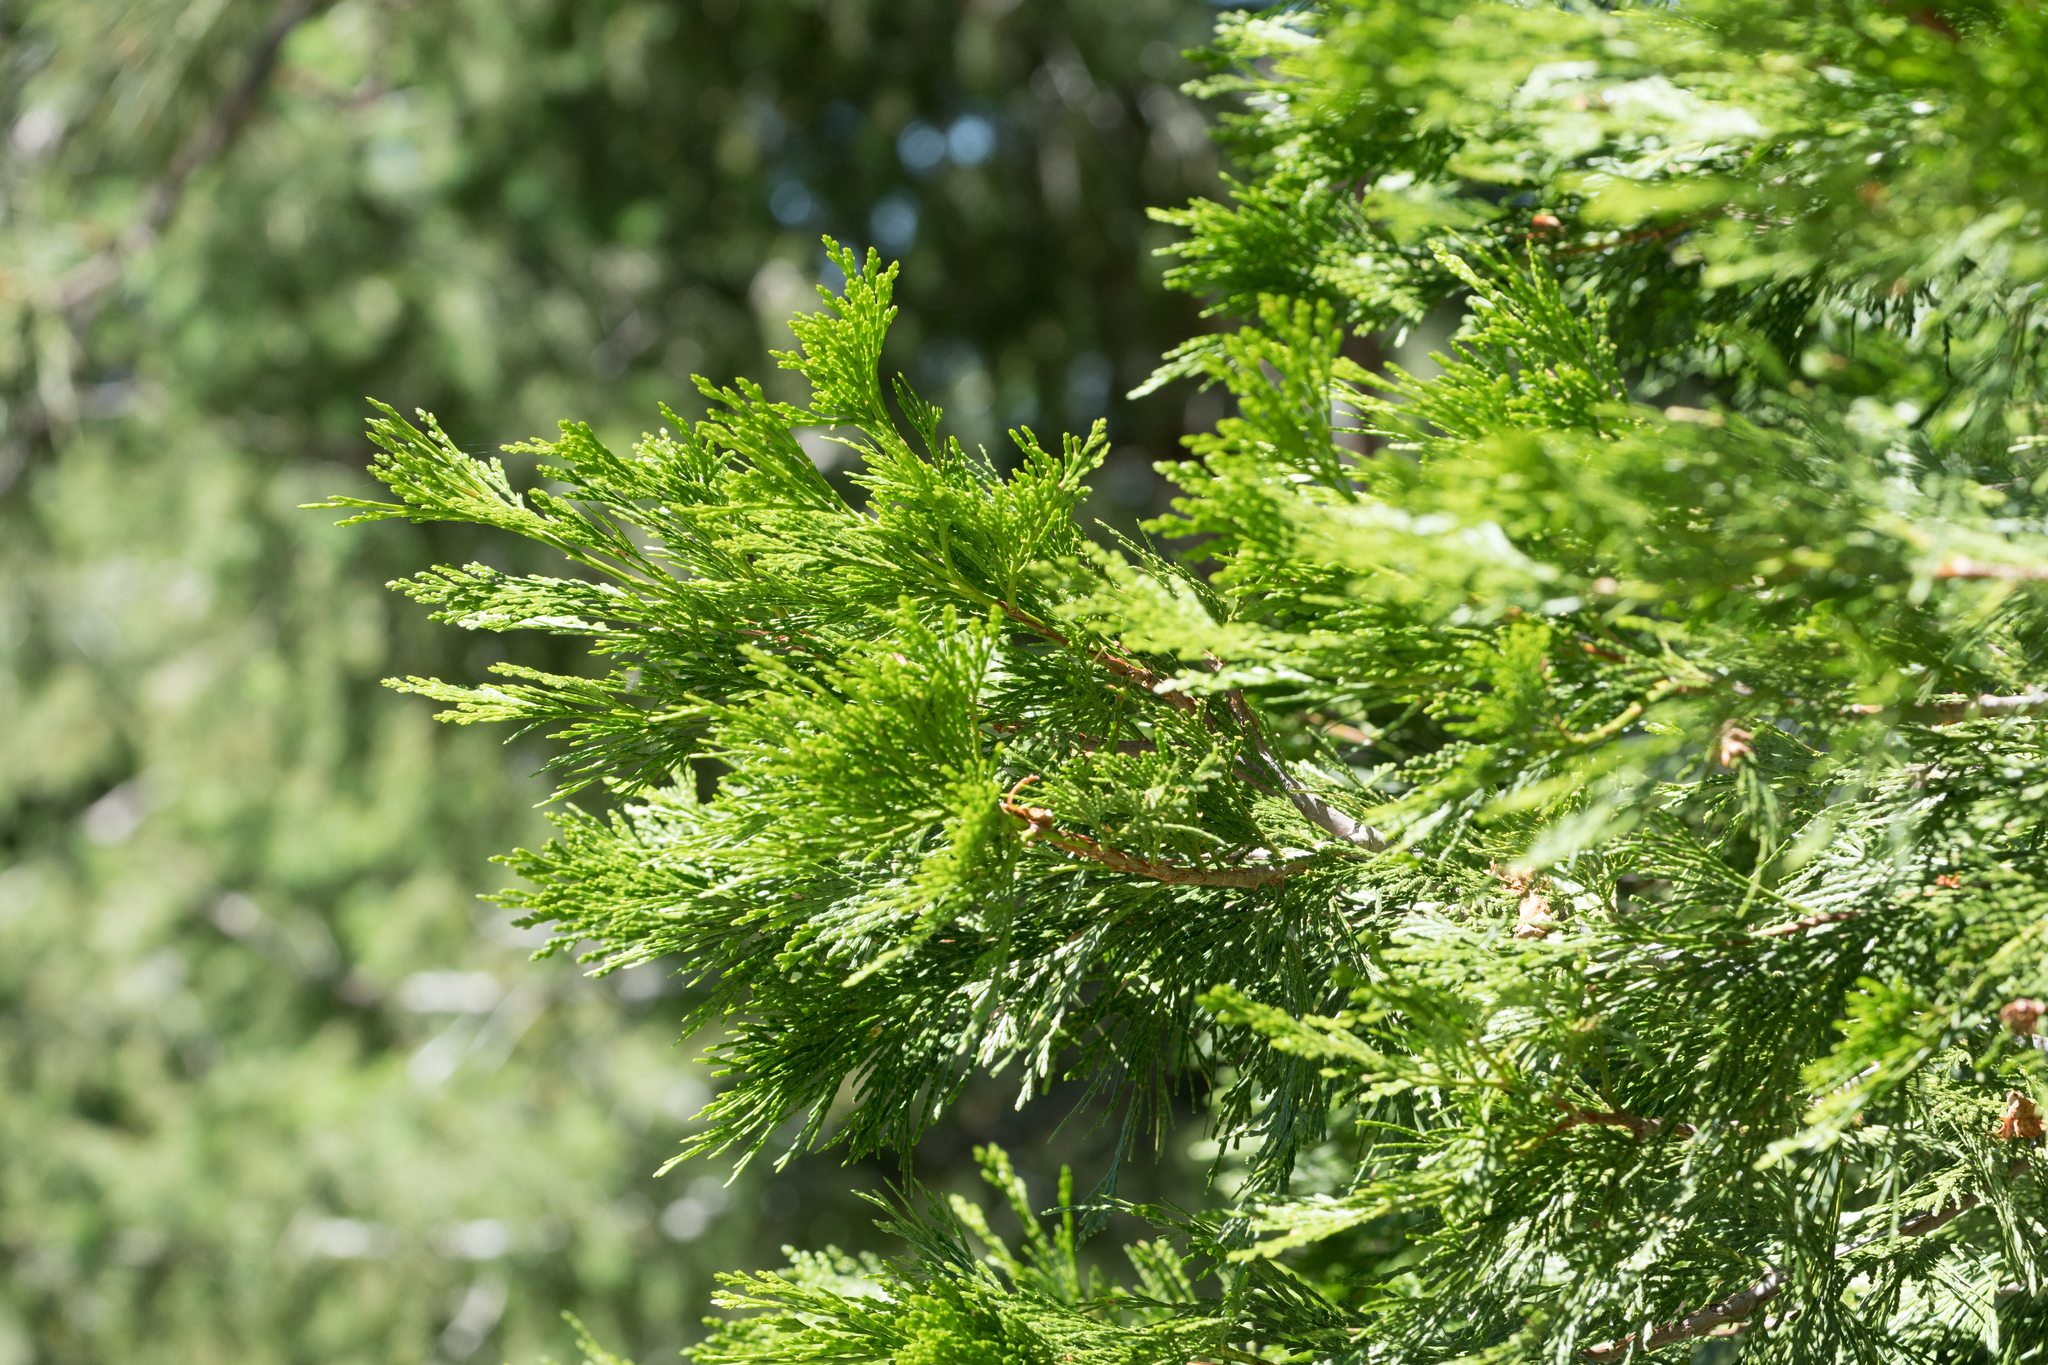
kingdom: Plantae
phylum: Tracheophyta
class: Pinopsida
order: Pinales
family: Cupressaceae
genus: Calocedrus
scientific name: Calocedrus decurrens
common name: Californian incense-cedar
